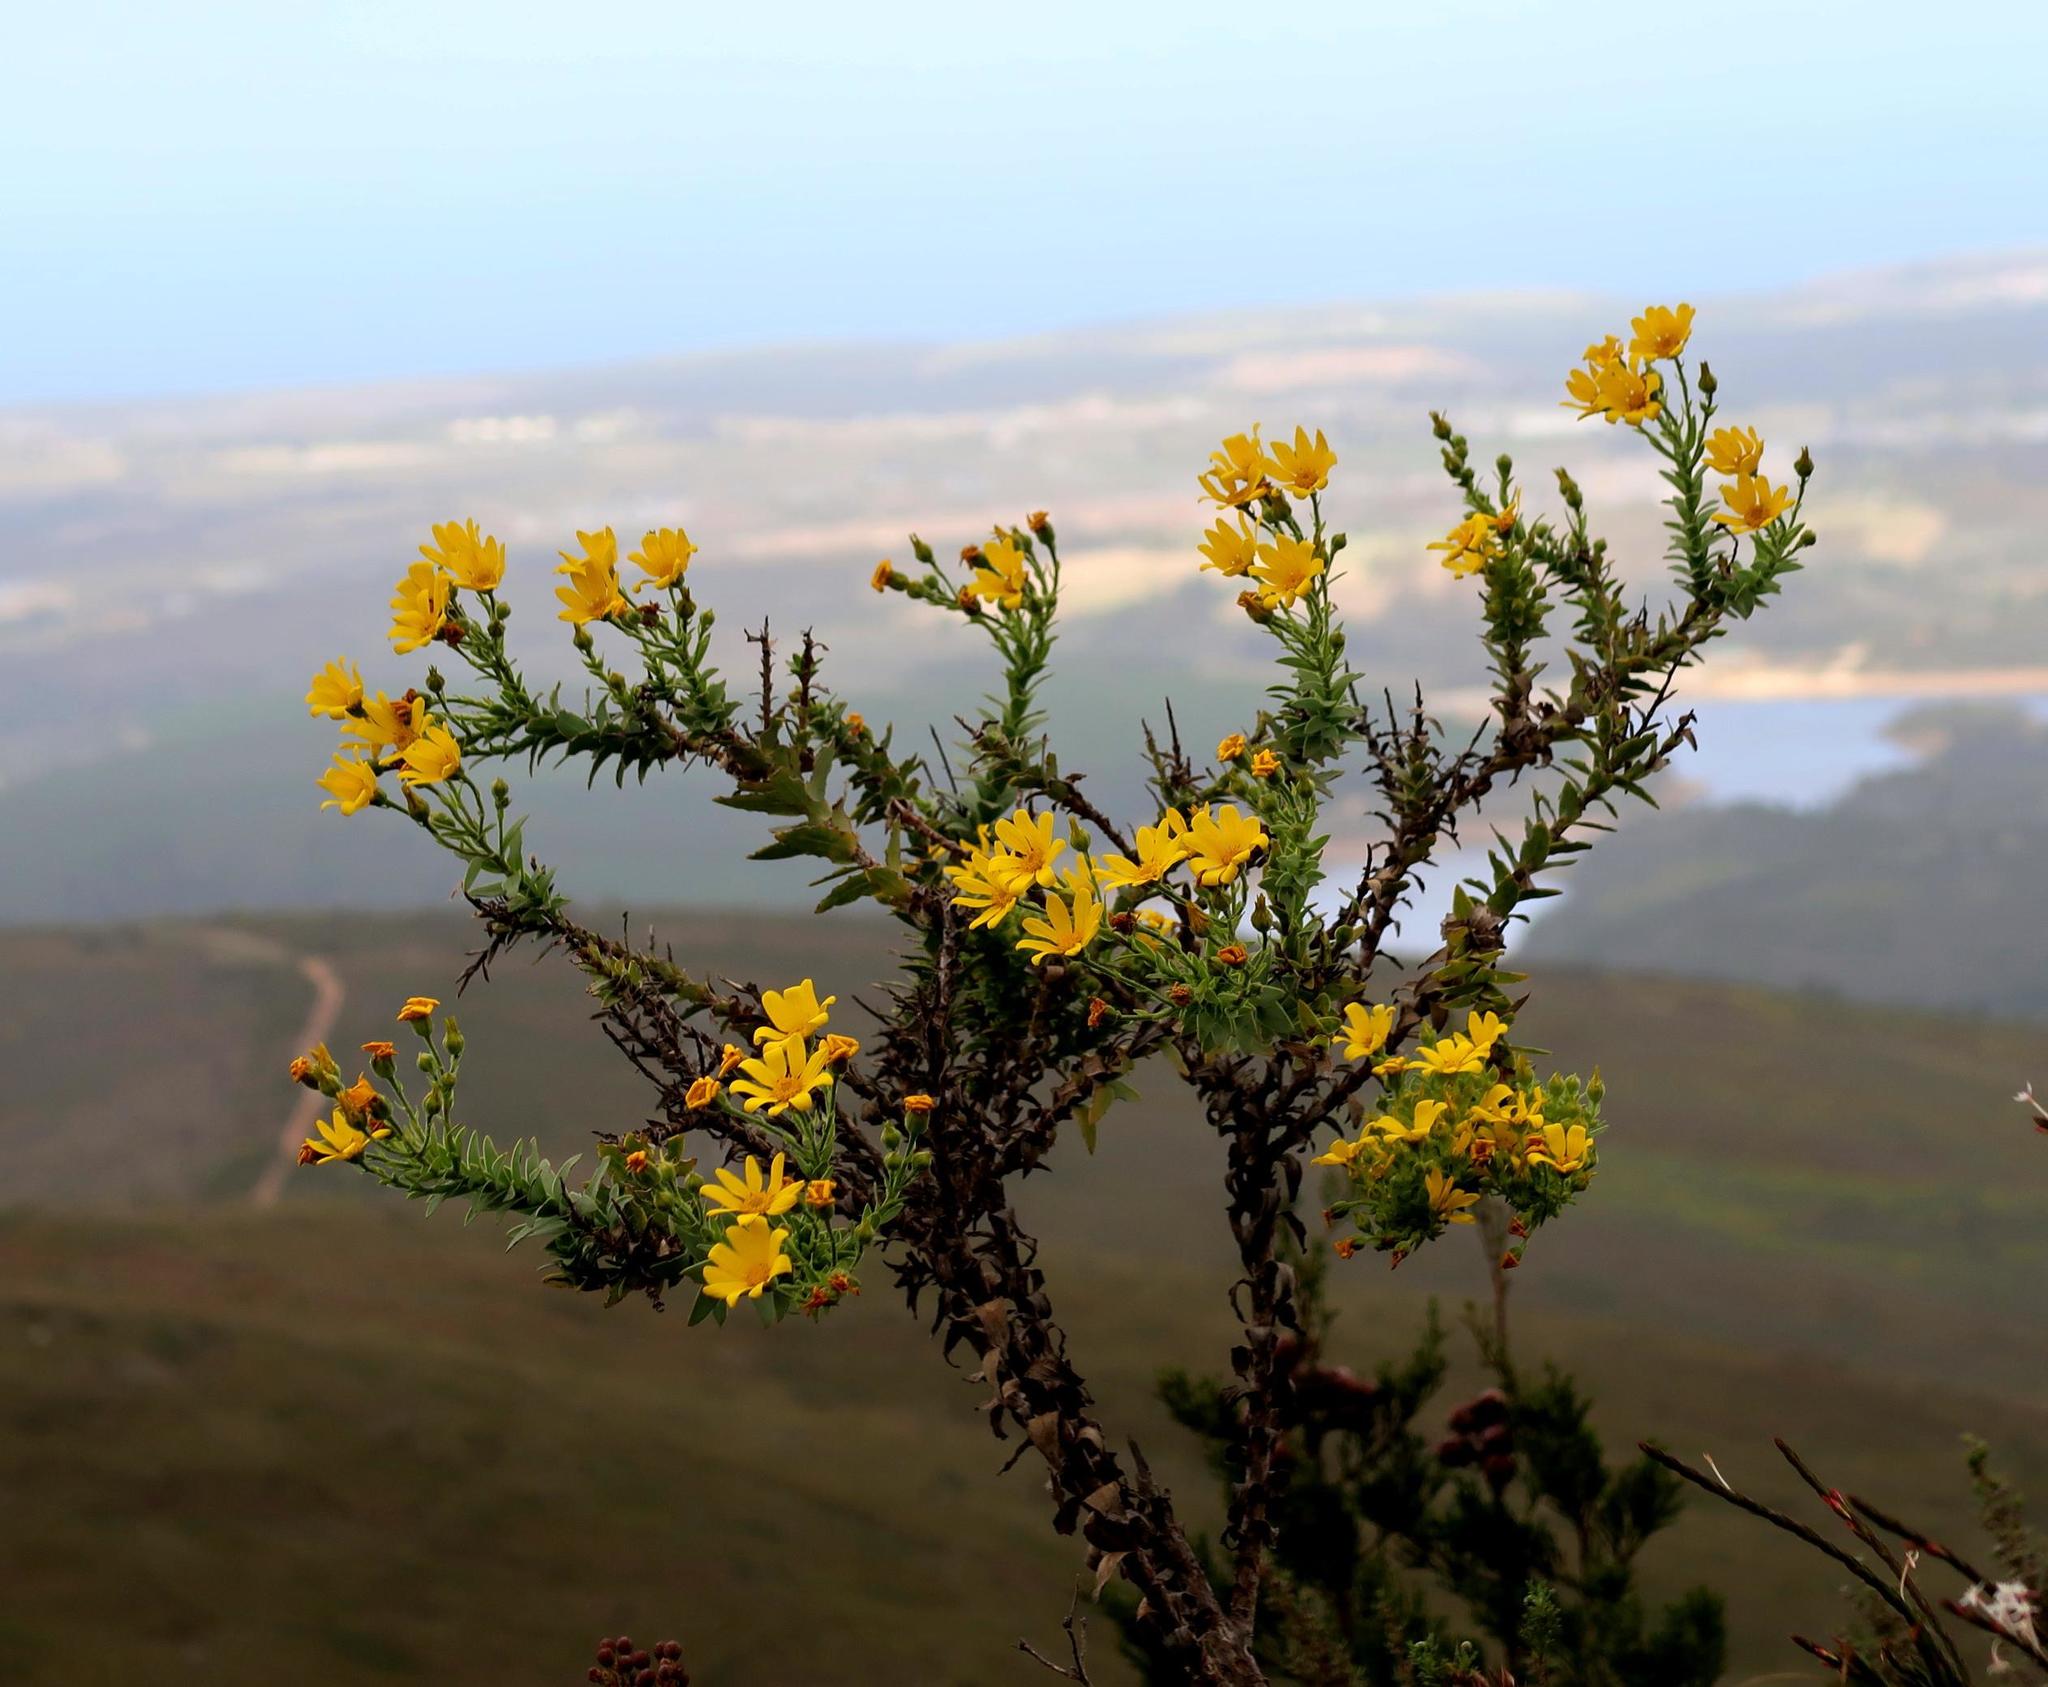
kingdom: Plantae
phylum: Tracheophyta
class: Magnoliopsida
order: Asterales
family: Asteraceae
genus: Osteospermum
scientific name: Osteospermum corymbosum
